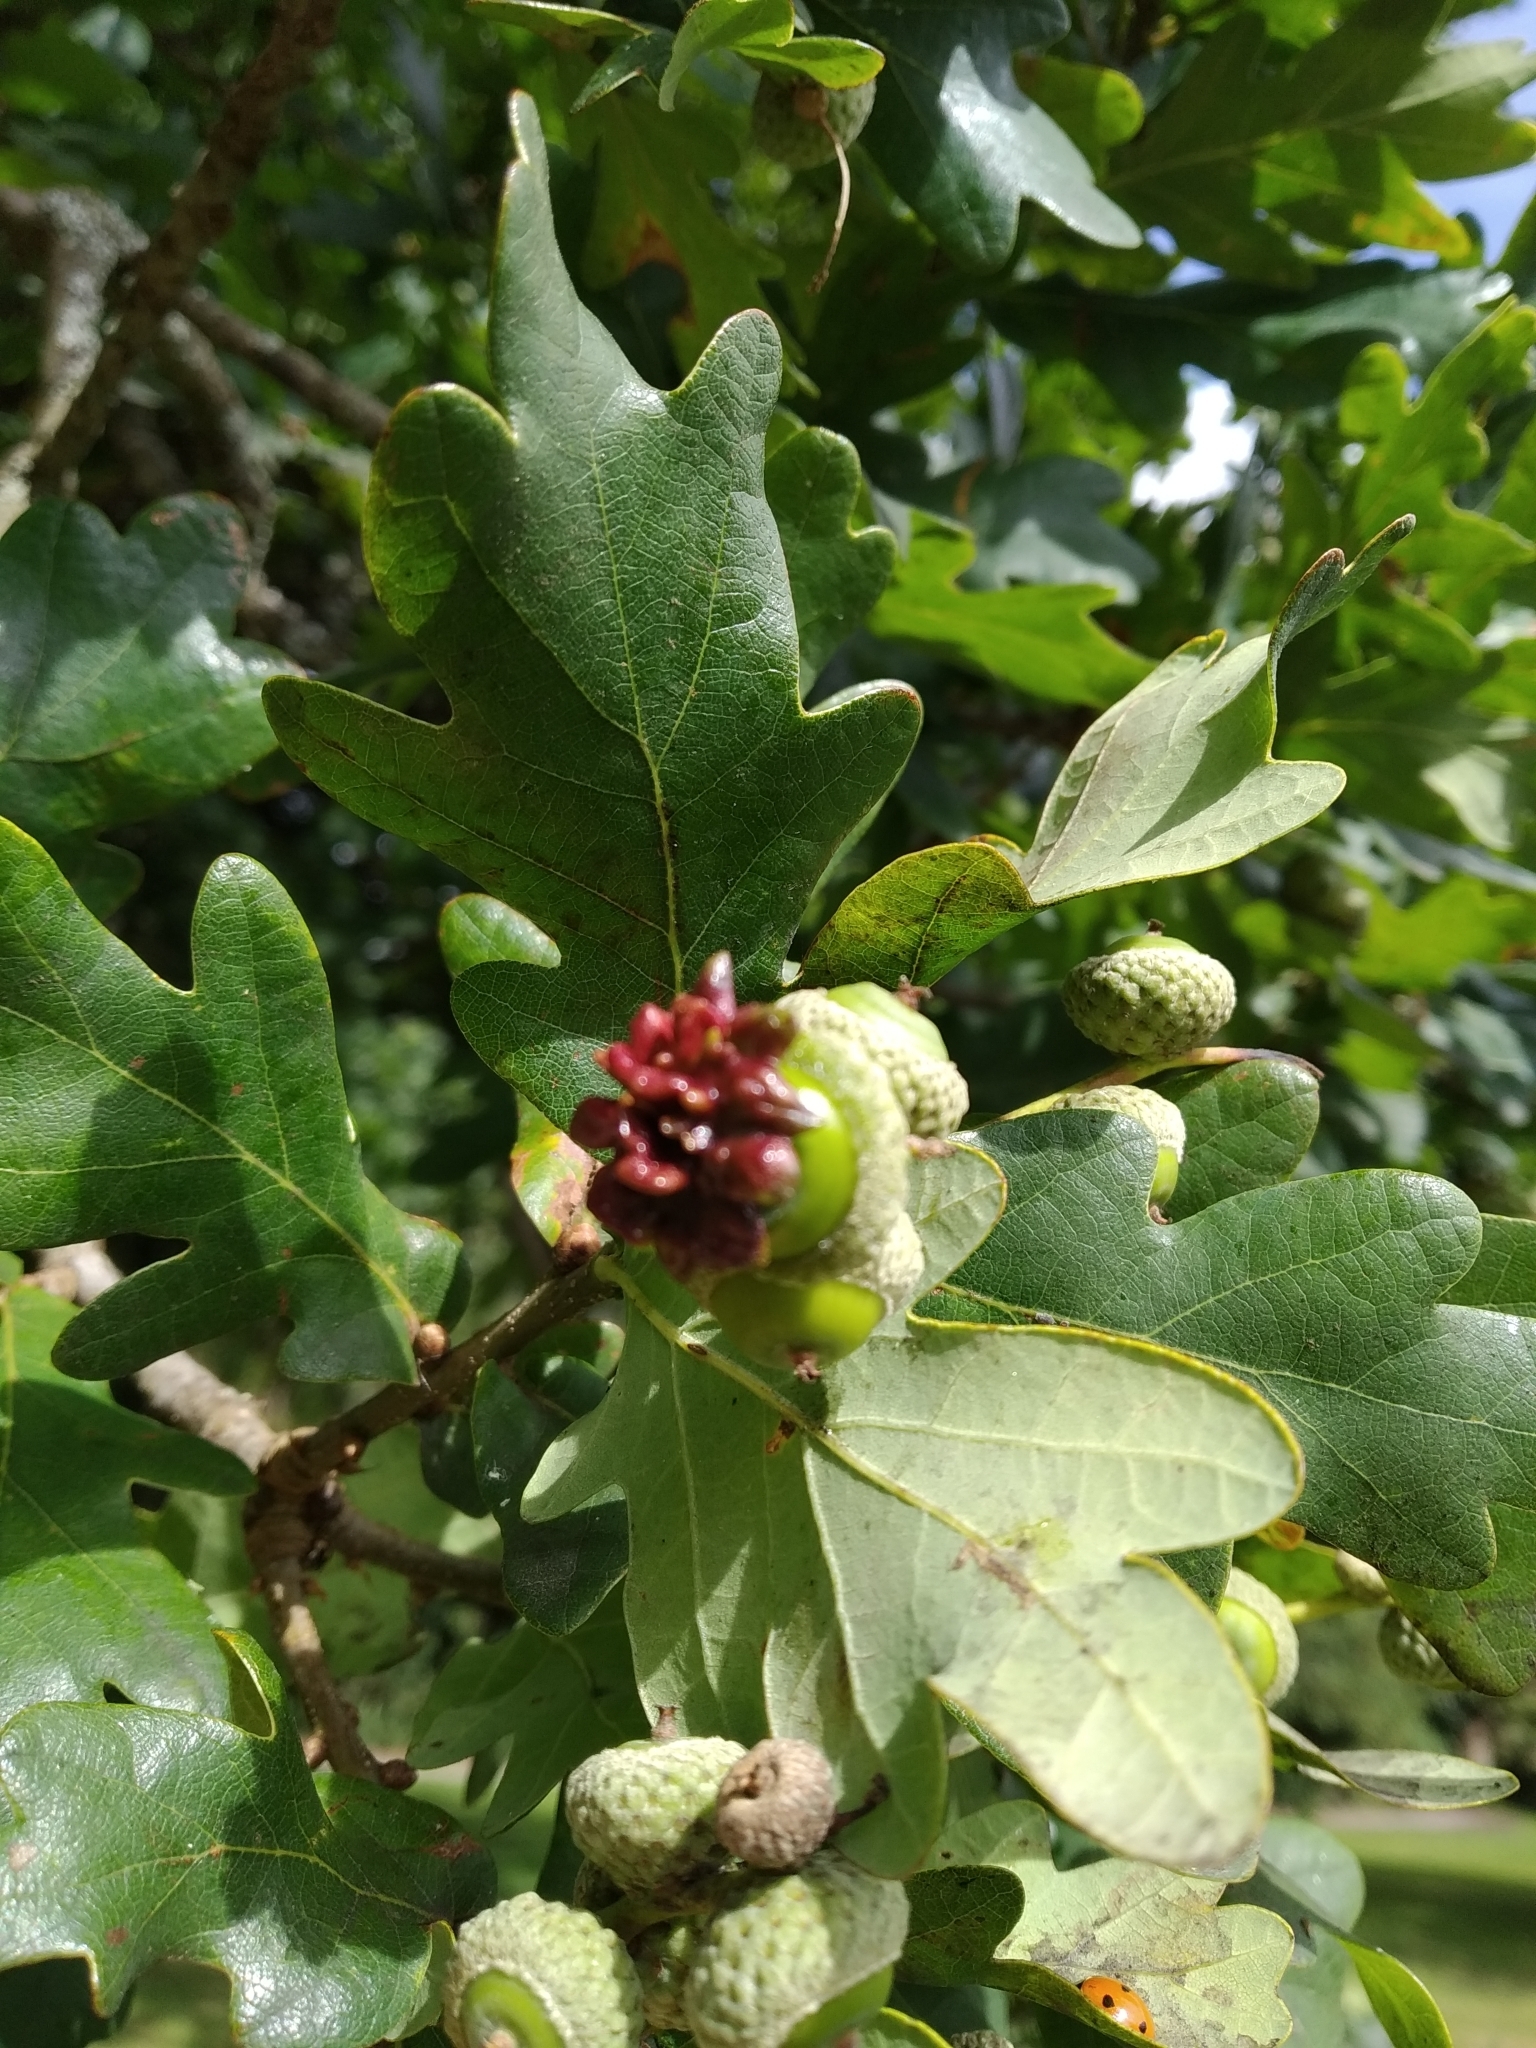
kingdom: Animalia
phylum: Arthropoda
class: Insecta
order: Hymenoptera
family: Cynipidae
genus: Andricus
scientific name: Andricus quercuscalicis
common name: Knopper gall
